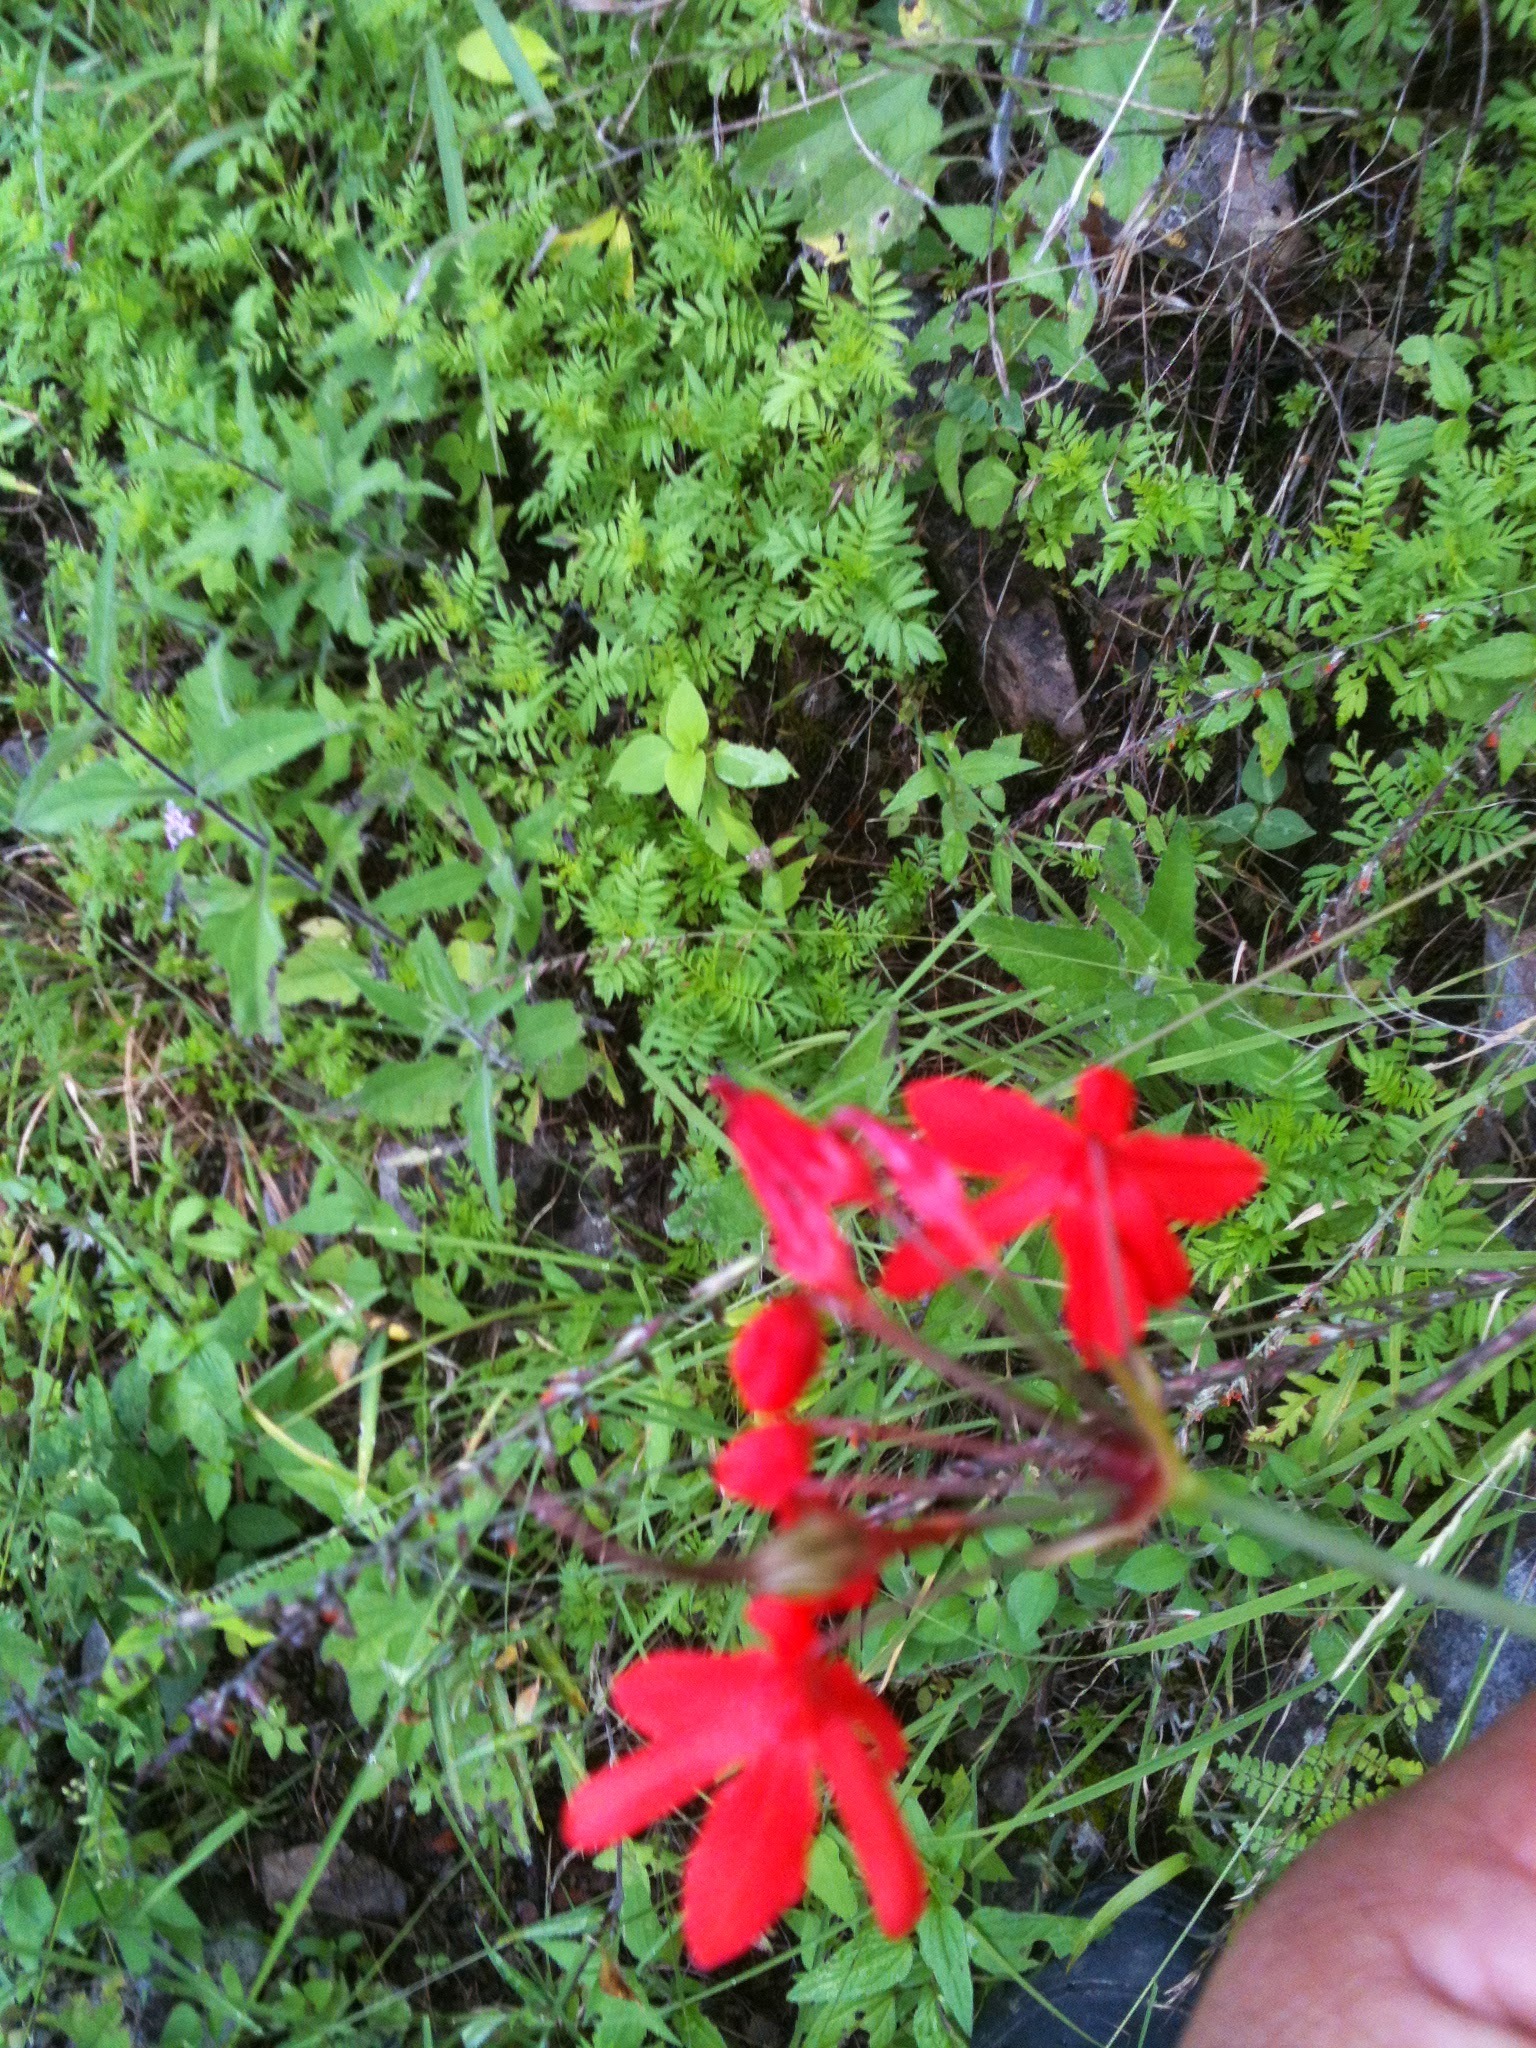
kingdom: Plantae
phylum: Tracheophyta
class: Liliopsida
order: Asparagales
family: Asparagaceae
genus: Bessera
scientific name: Bessera elegans
